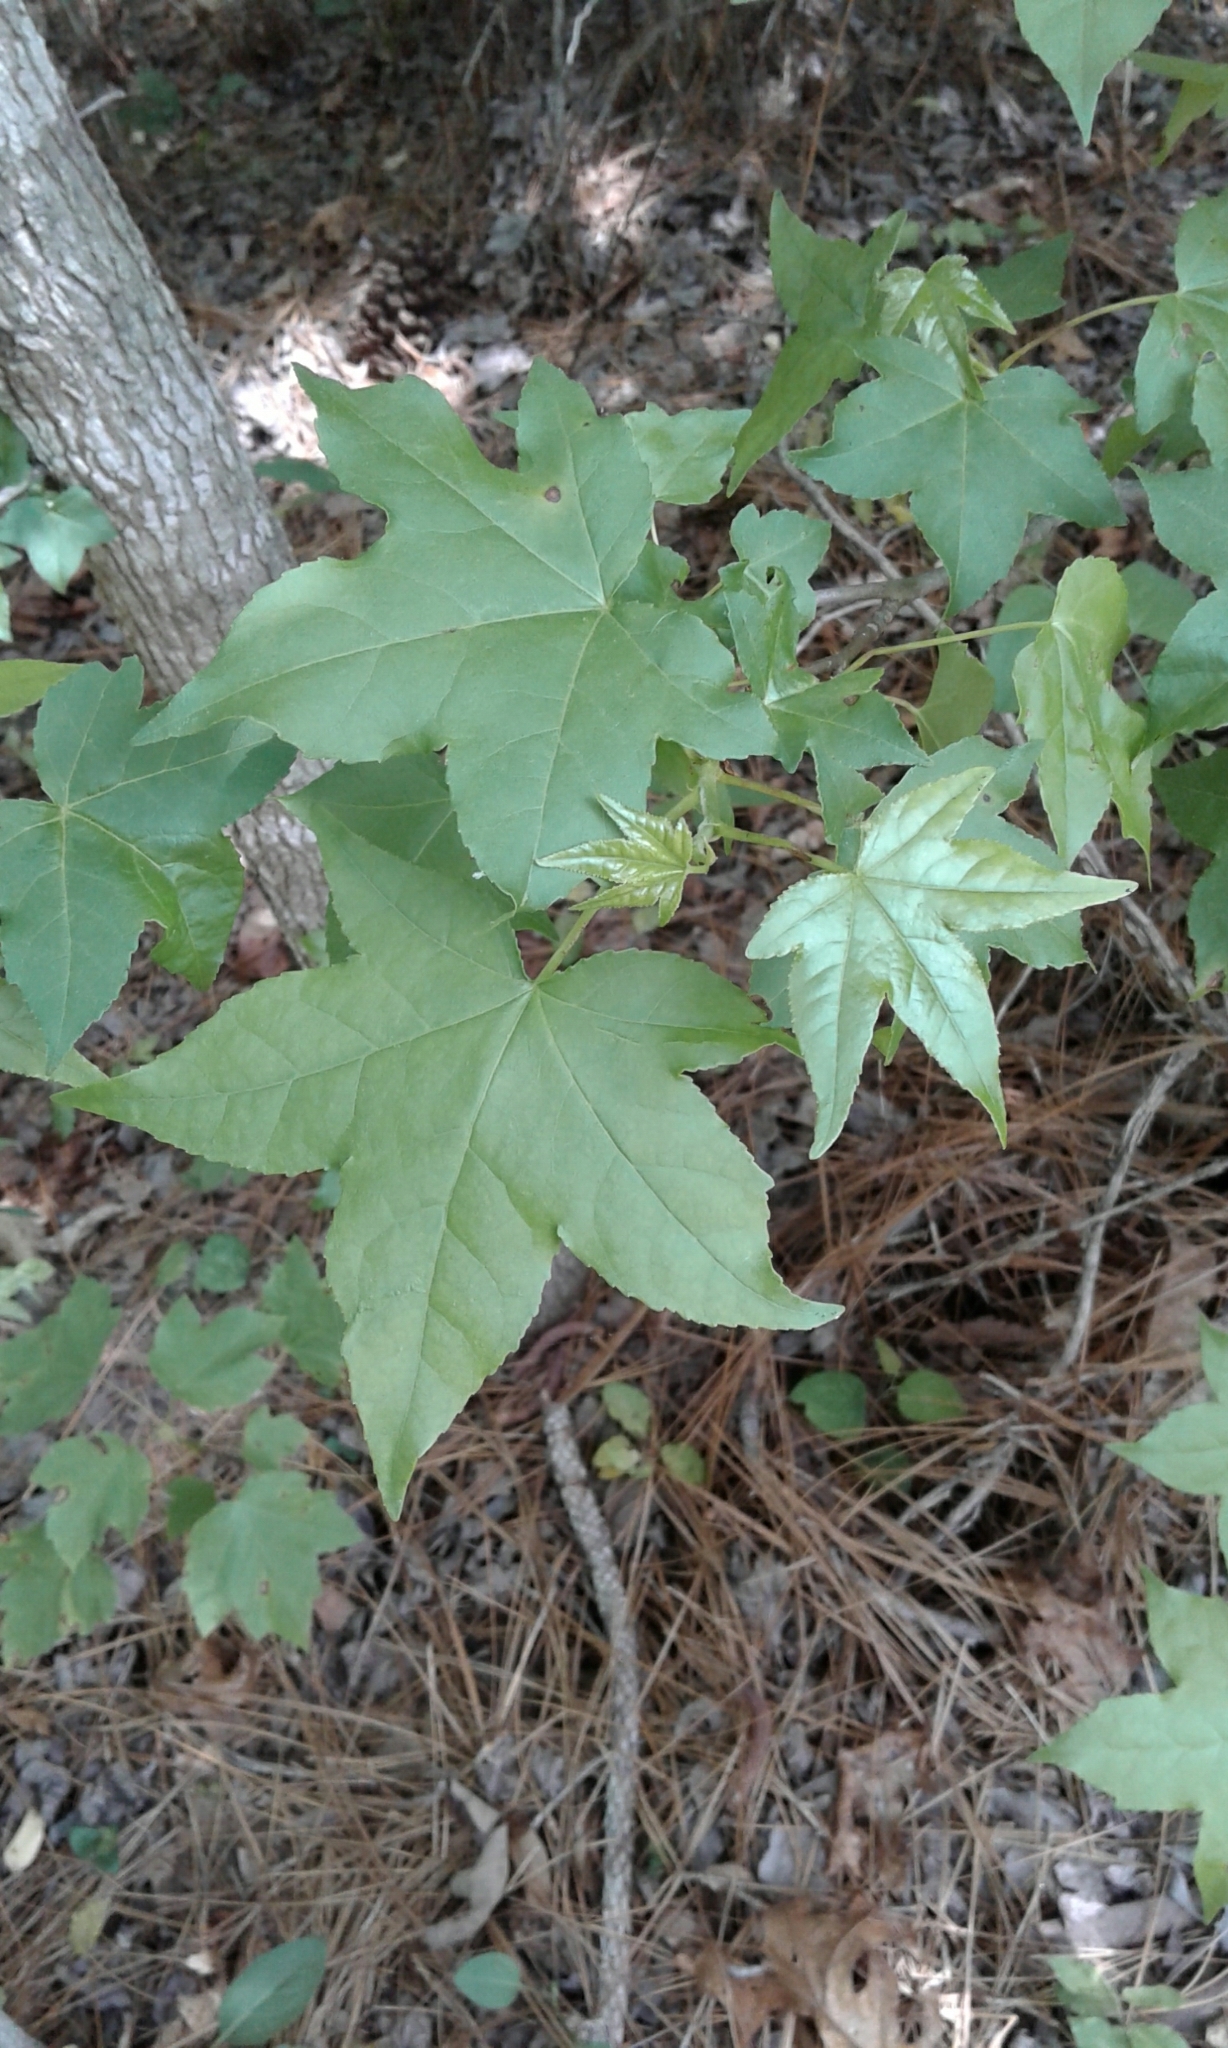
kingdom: Plantae
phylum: Tracheophyta
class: Magnoliopsida
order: Saxifragales
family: Altingiaceae
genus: Liquidambar
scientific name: Liquidambar styraciflua
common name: Sweet gum
